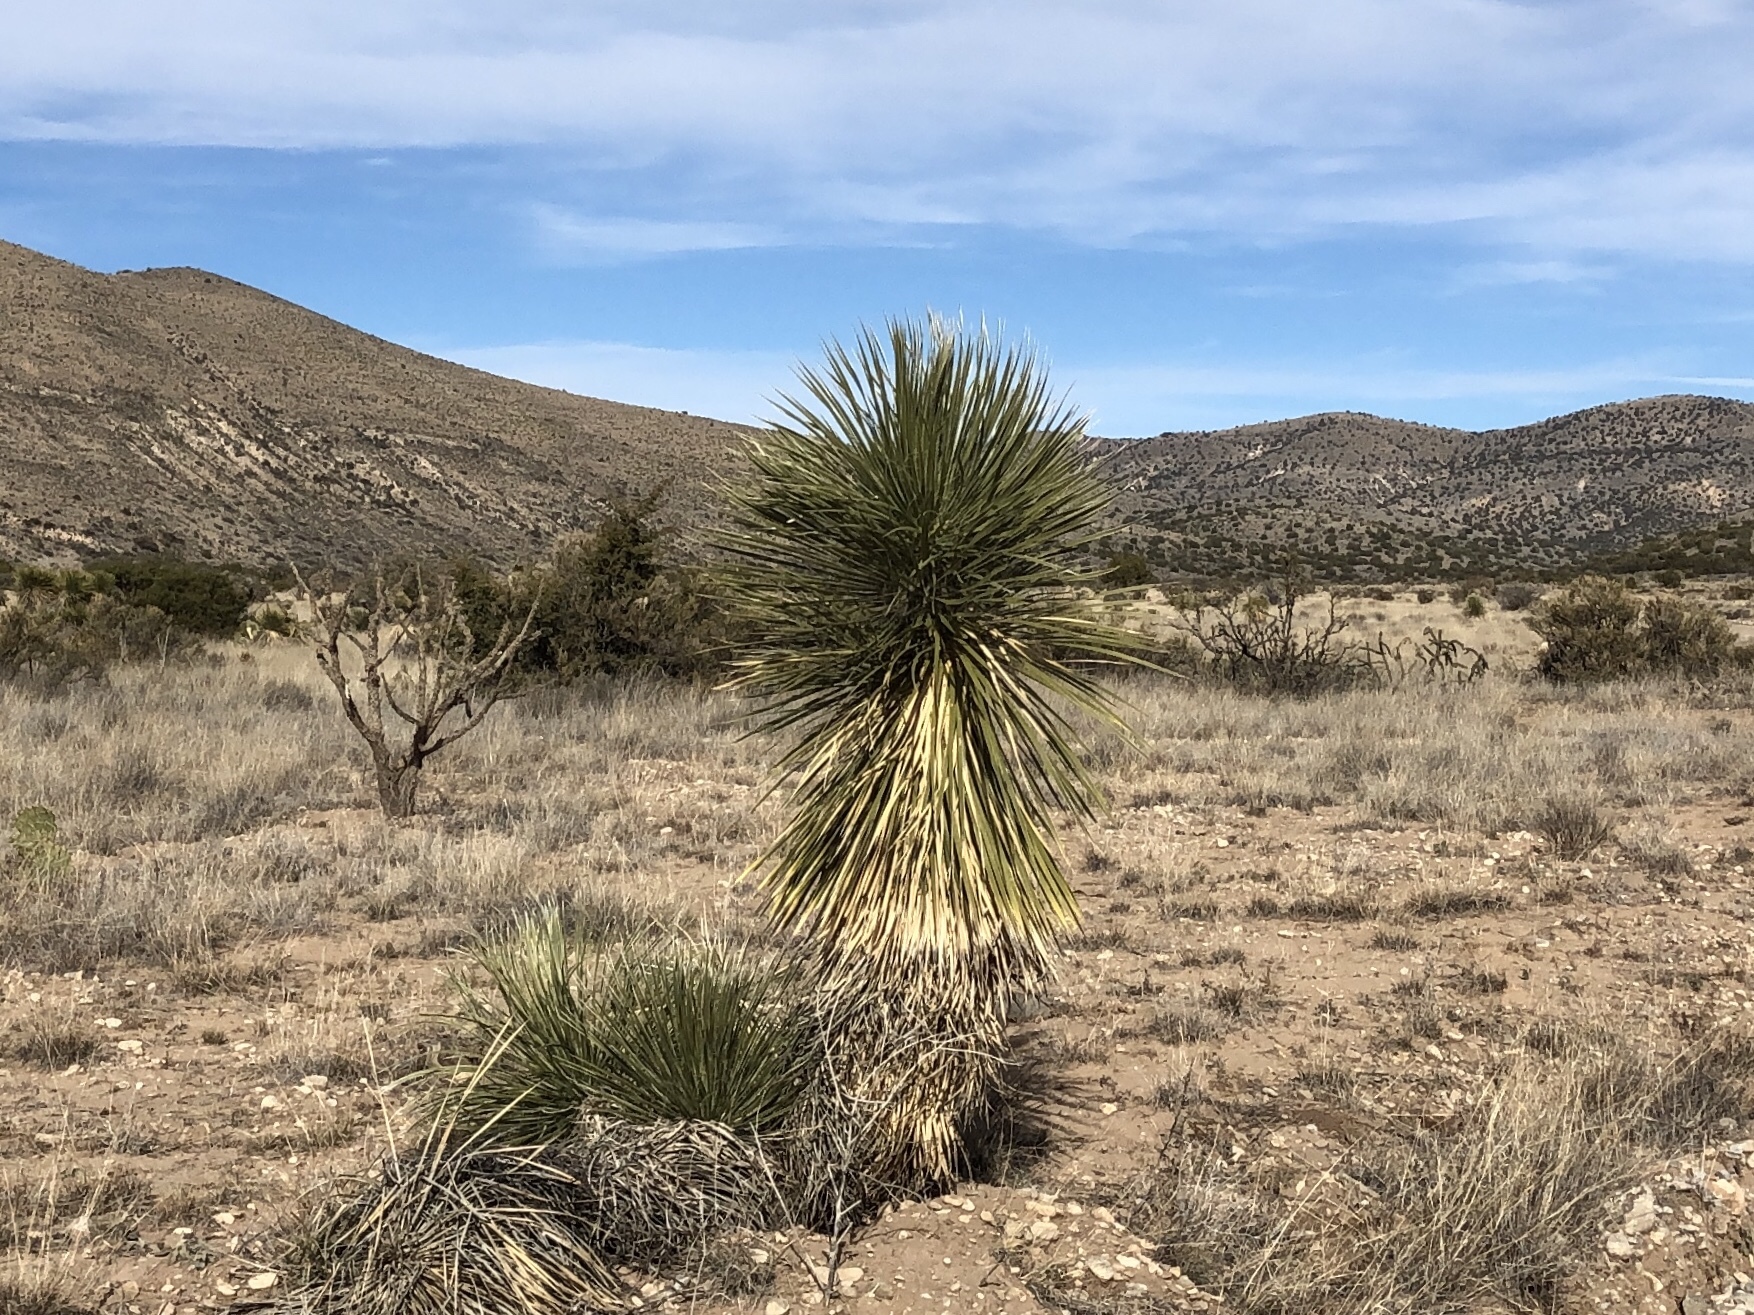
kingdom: Plantae
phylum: Tracheophyta
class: Liliopsida
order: Asparagales
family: Asparagaceae
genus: Yucca
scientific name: Yucca elata
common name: Palmella
